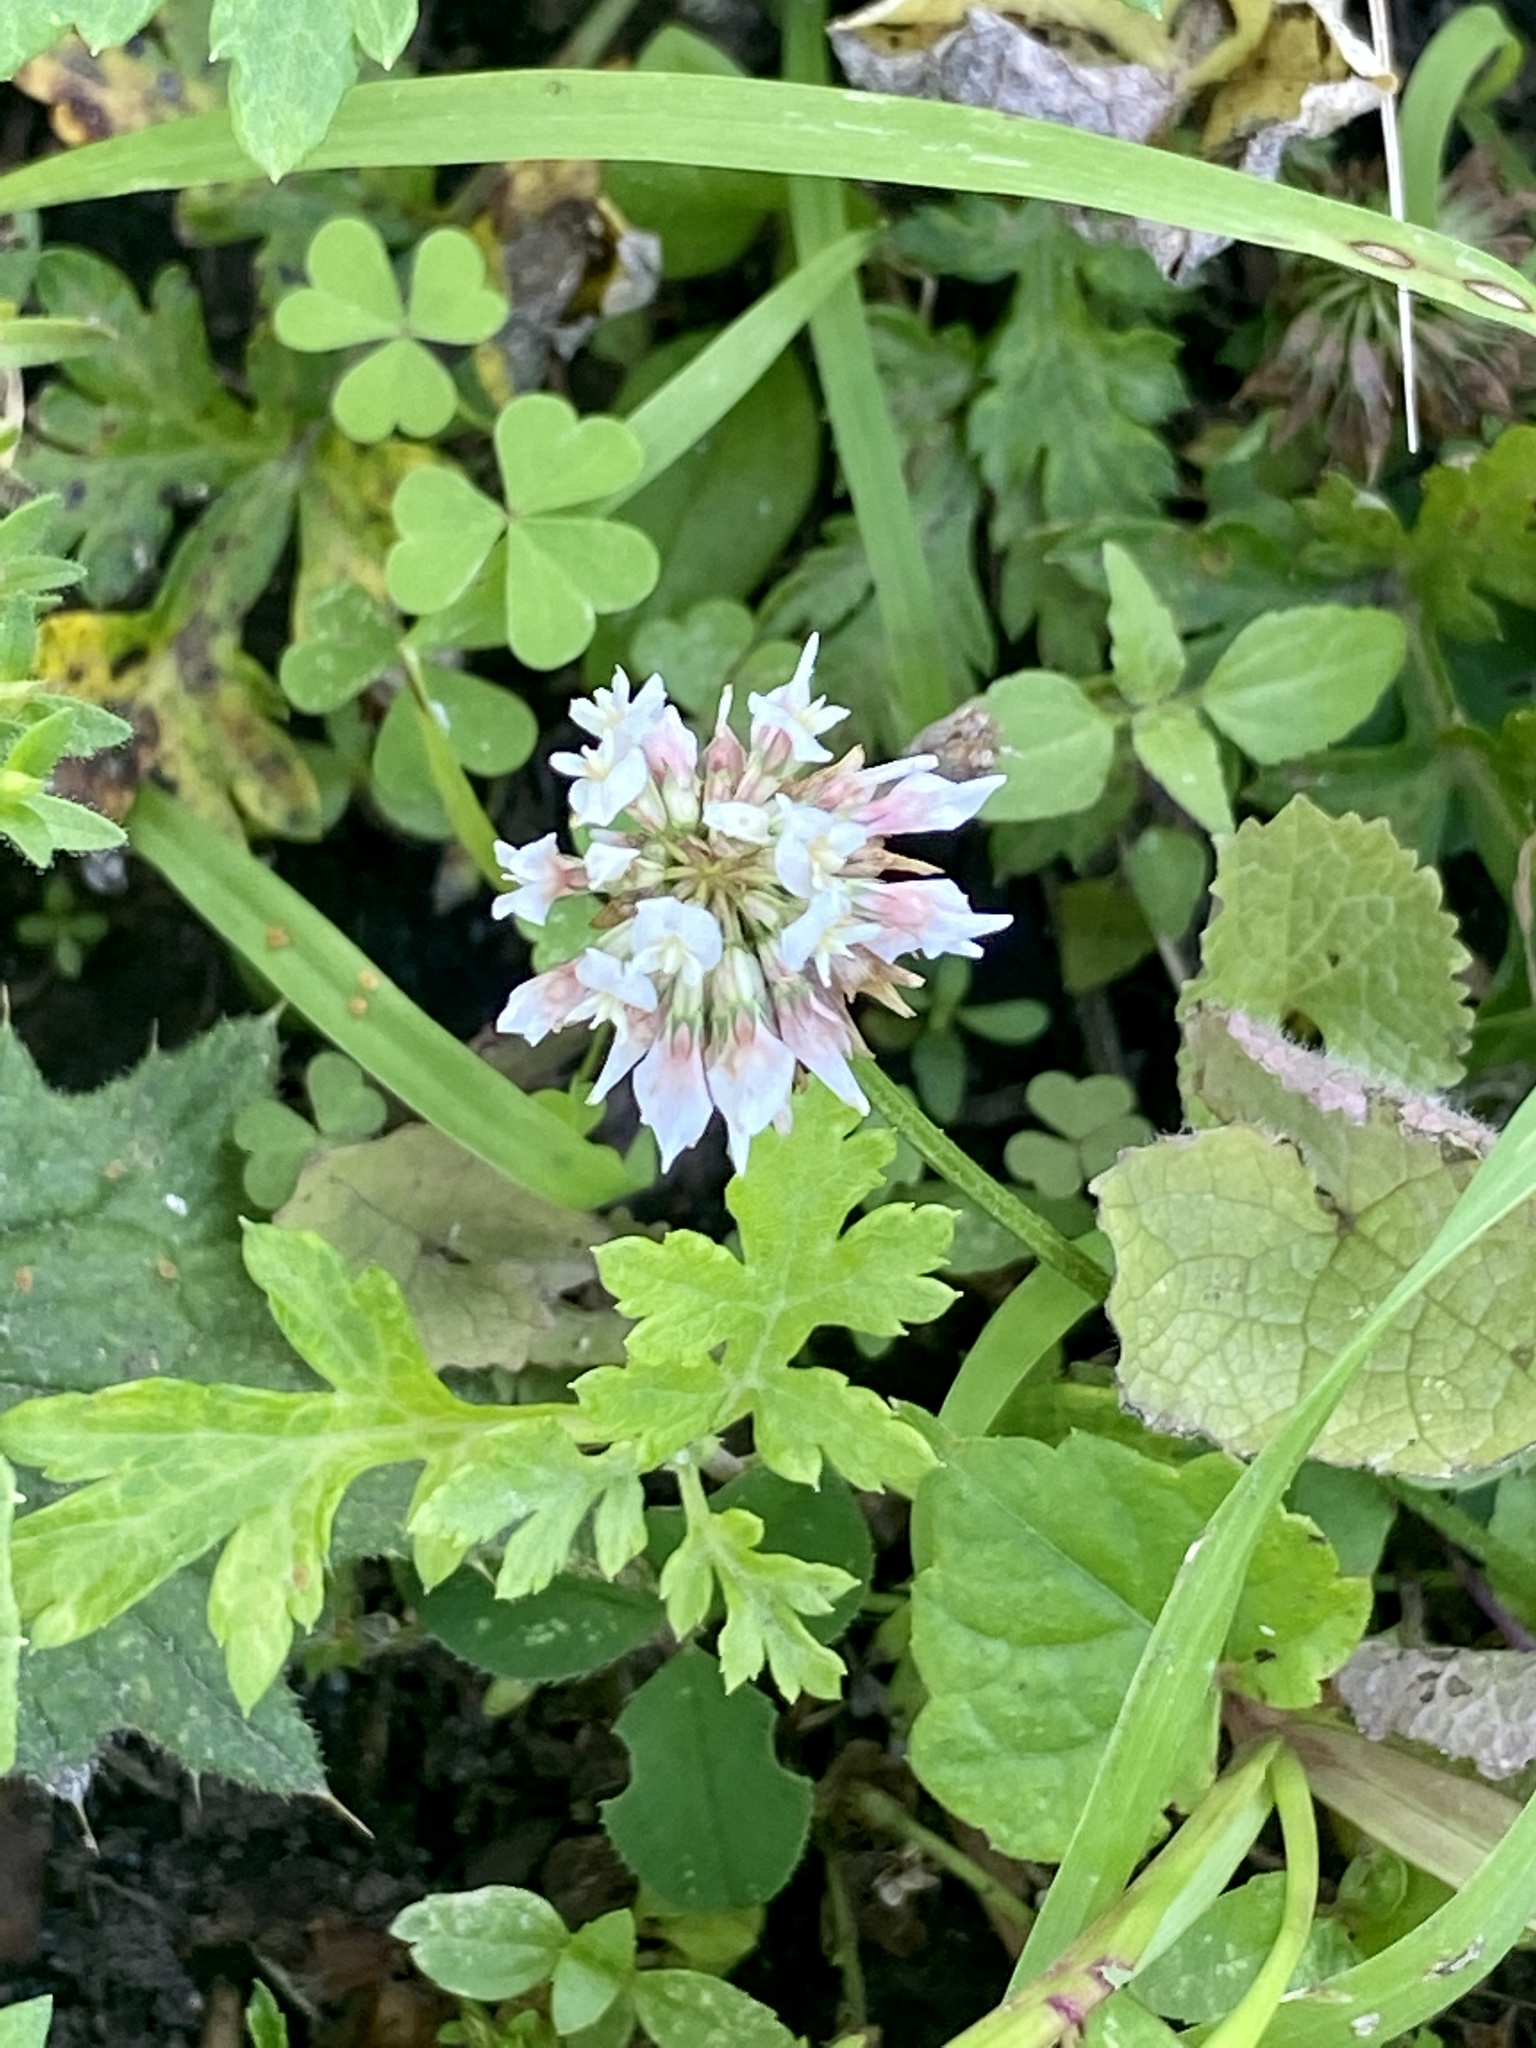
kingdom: Plantae
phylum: Tracheophyta
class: Magnoliopsida
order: Fabales
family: Fabaceae
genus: Trifolium
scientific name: Trifolium repens
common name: White clover
